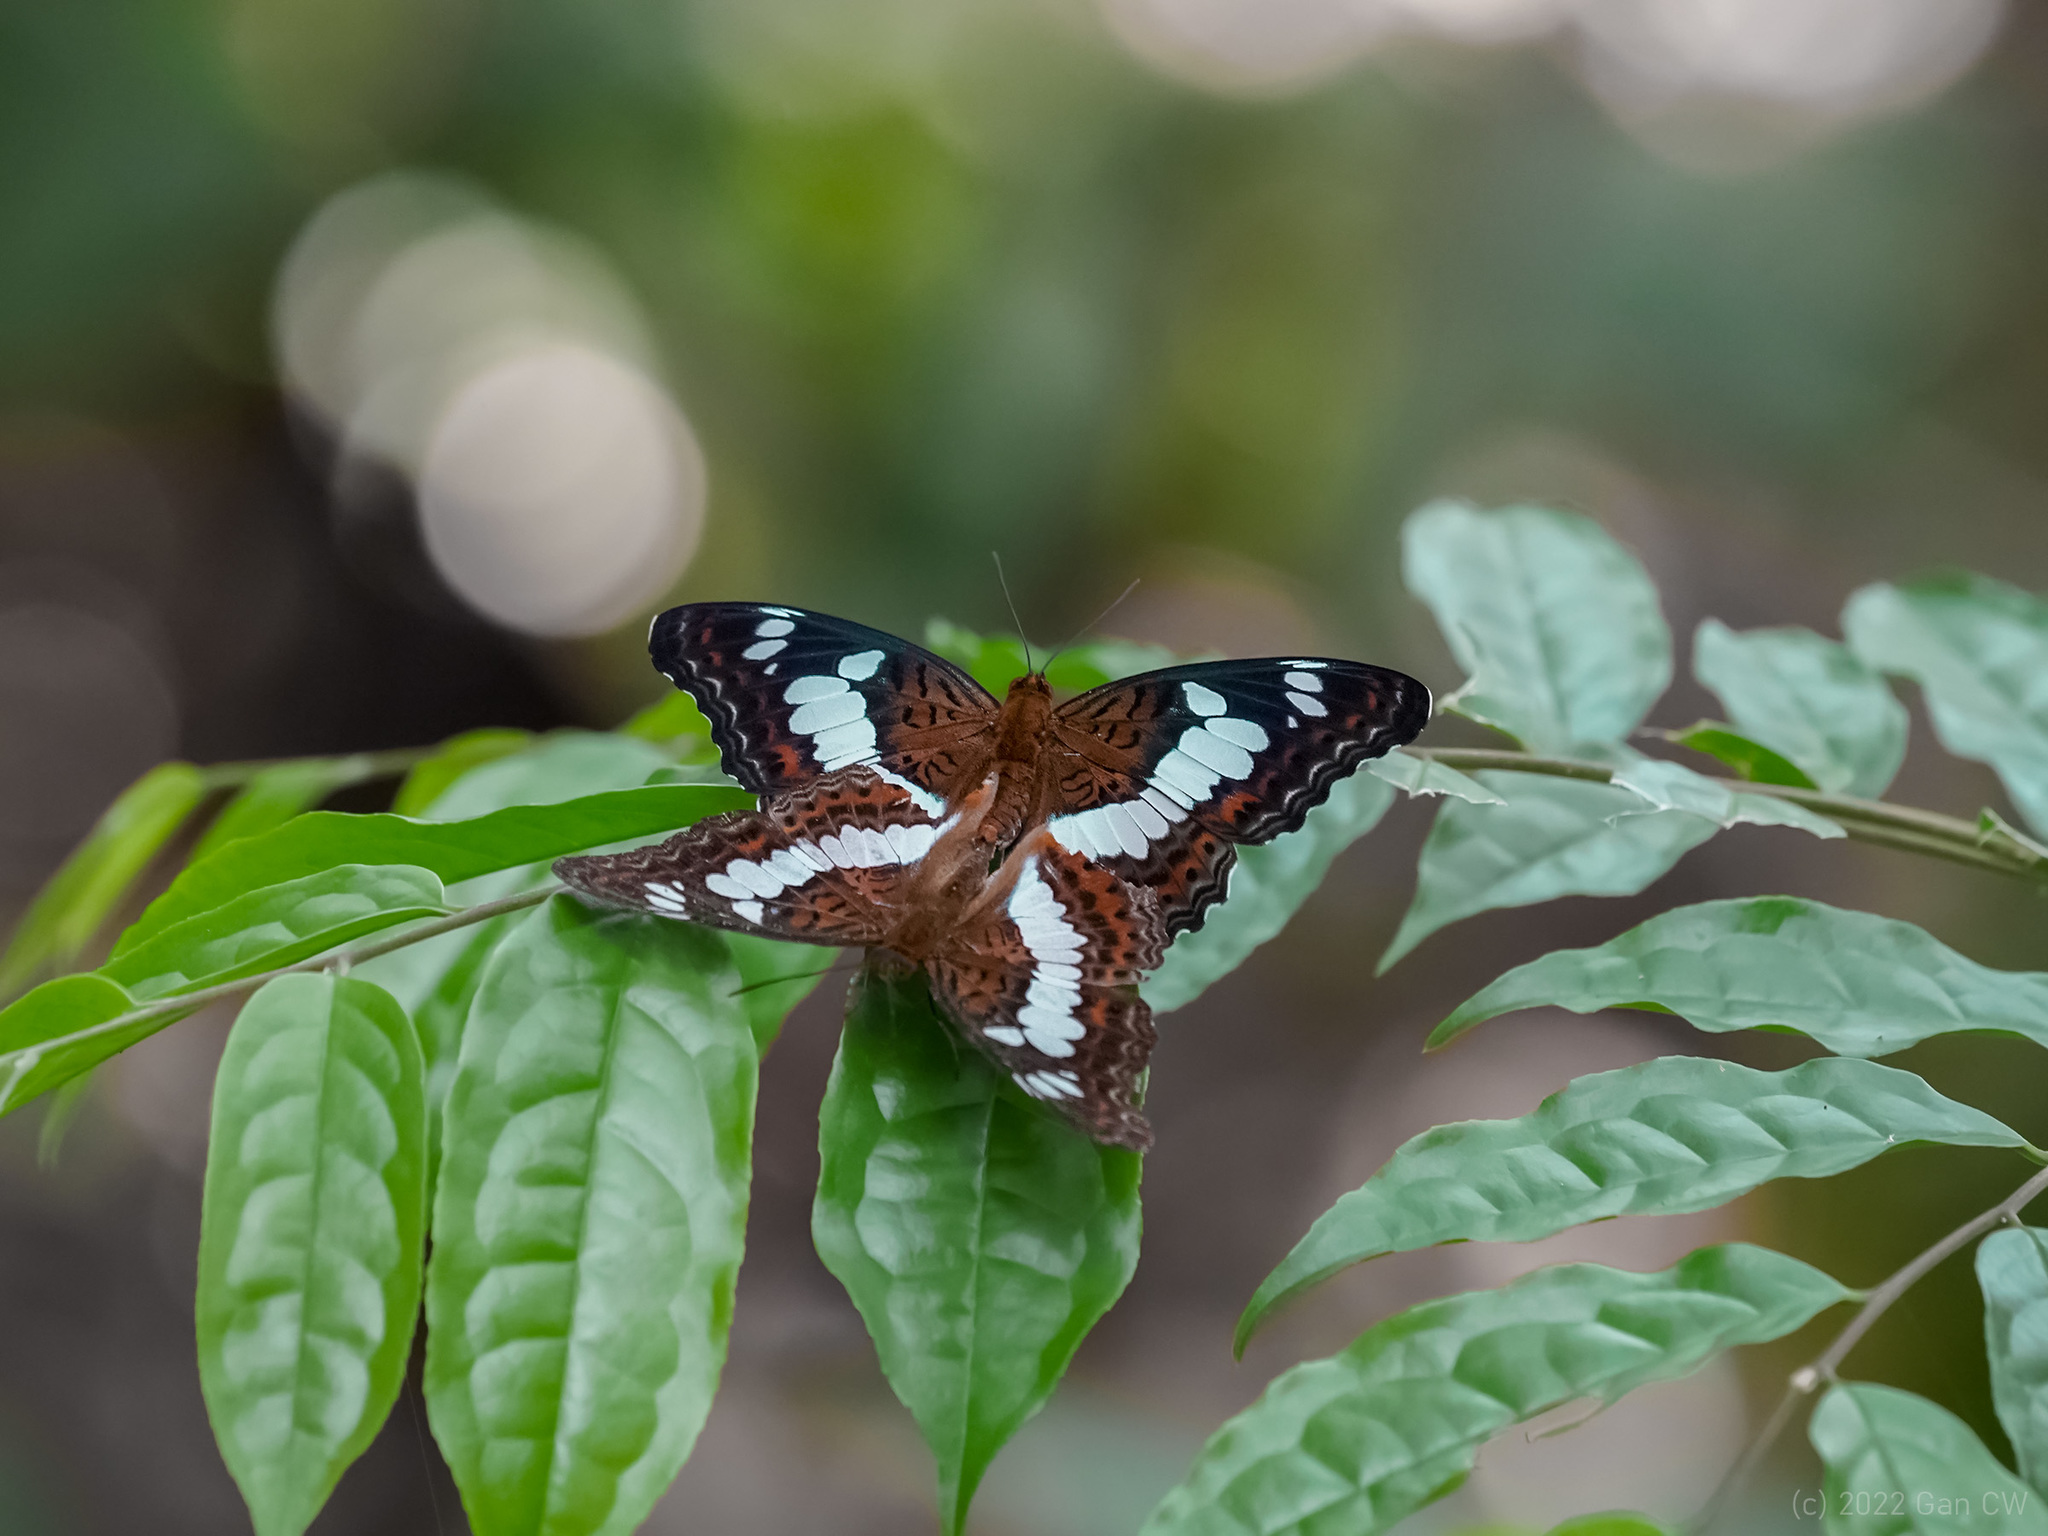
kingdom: Animalia
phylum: Arthropoda
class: Insecta
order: Lepidoptera
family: Nymphalidae
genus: Limenitis
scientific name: Limenitis Moduza procris
